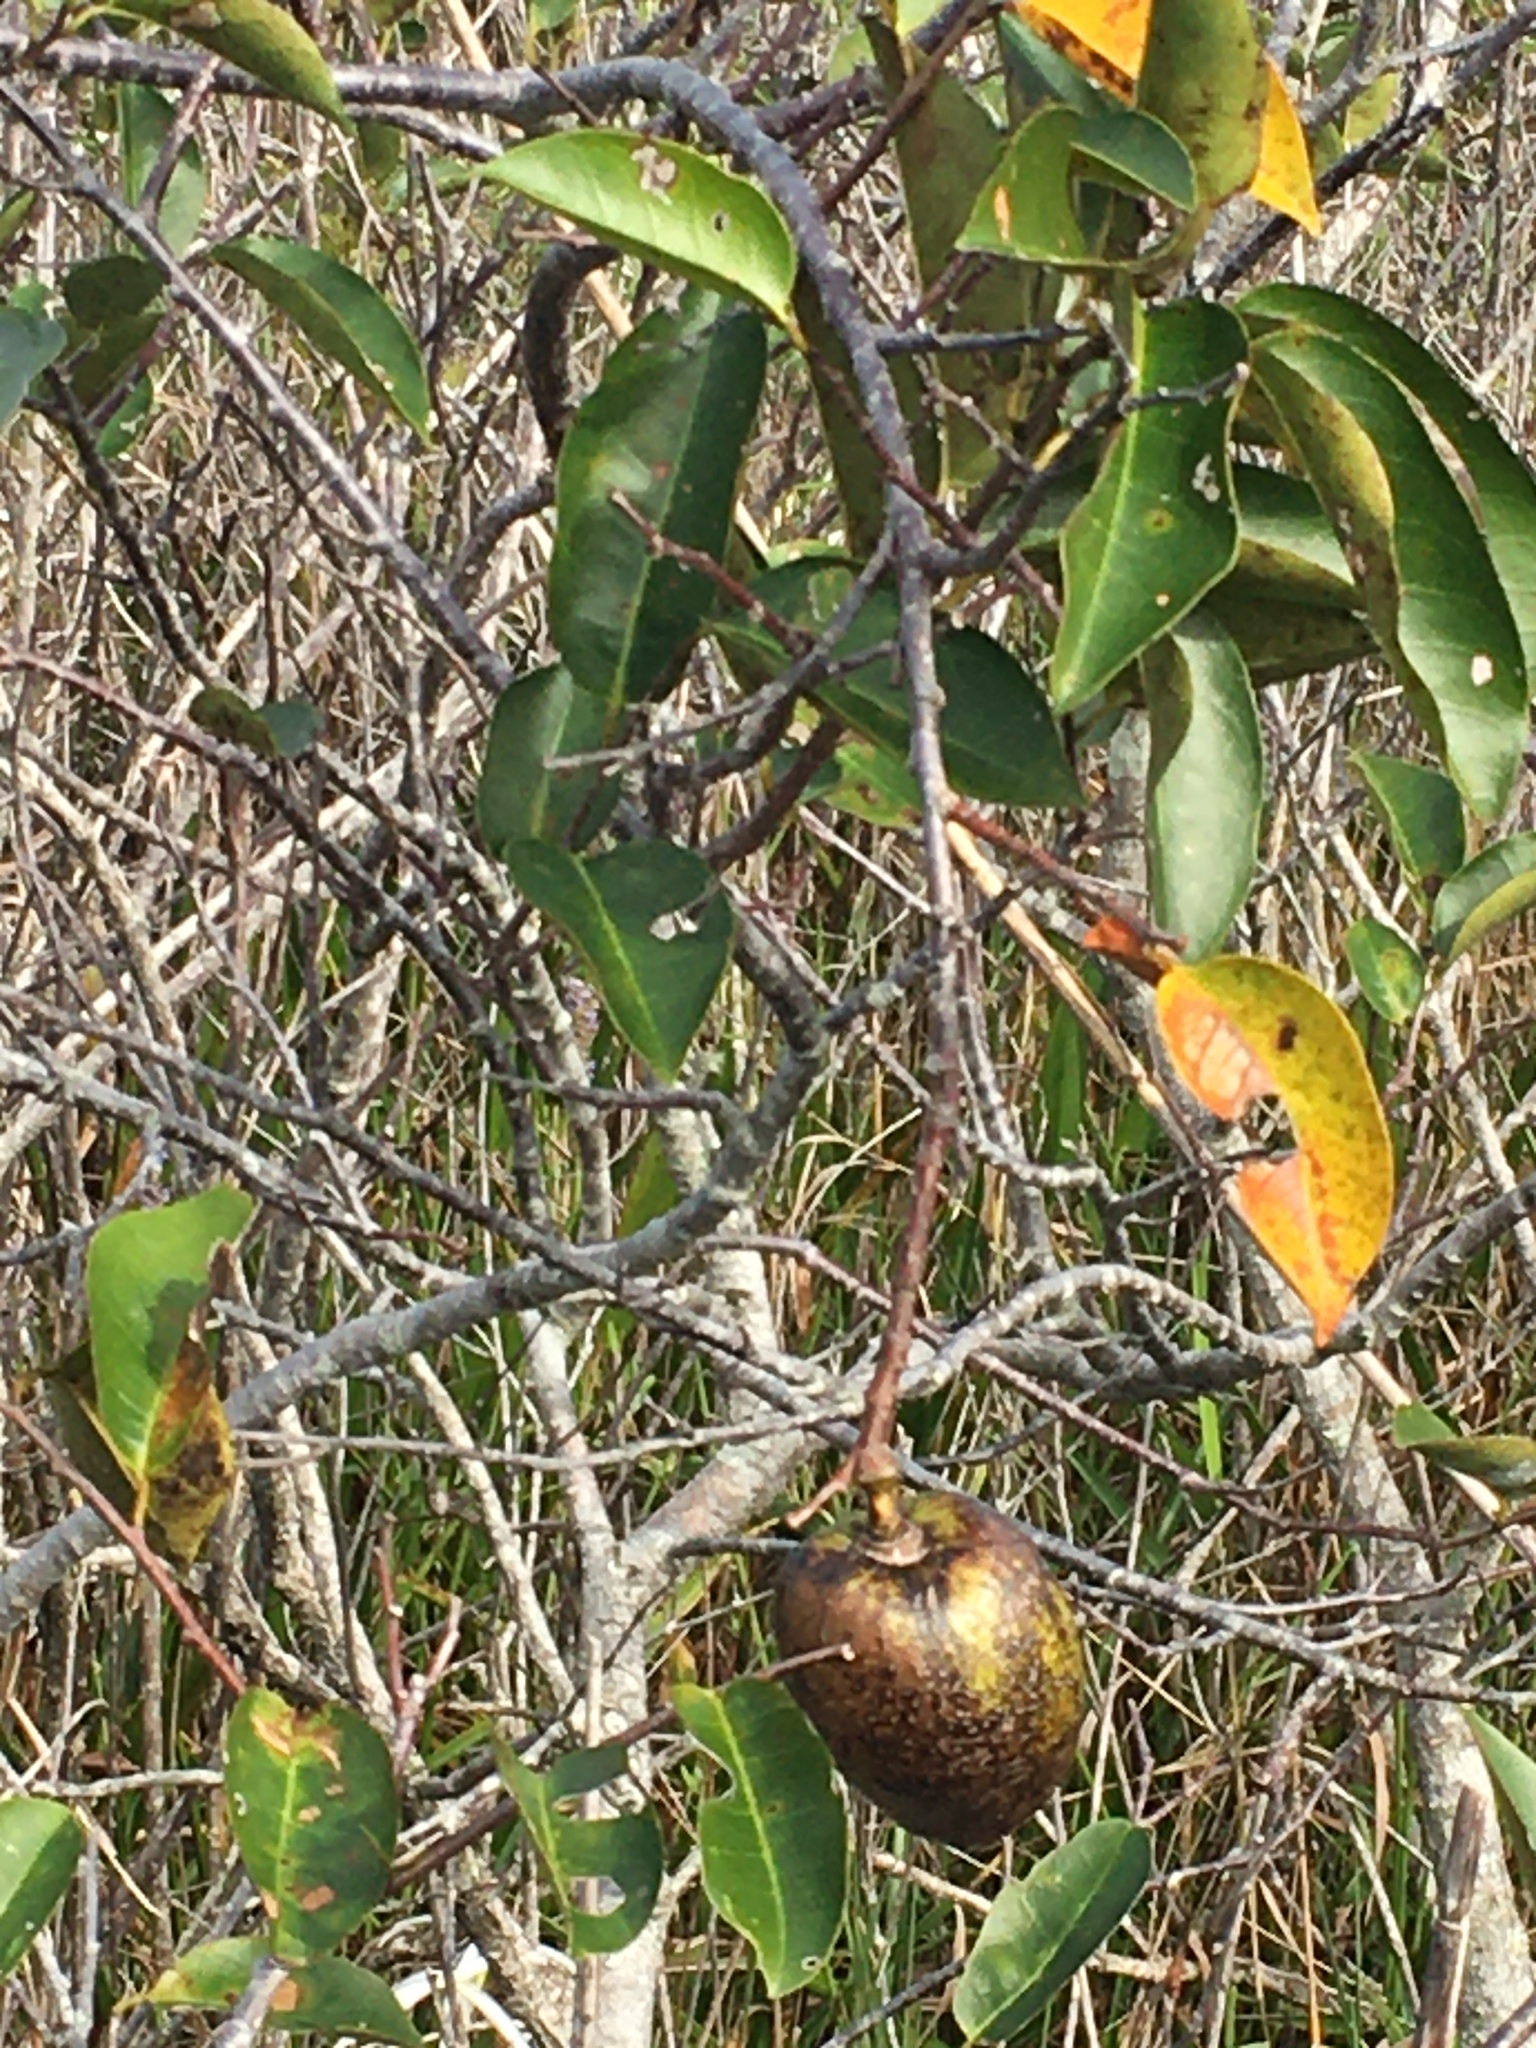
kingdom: Plantae
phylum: Tracheophyta
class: Magnoliopsida
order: Magnoliales
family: Annonaceae
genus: Annona
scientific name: Annona glabra
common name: Monkey apple
